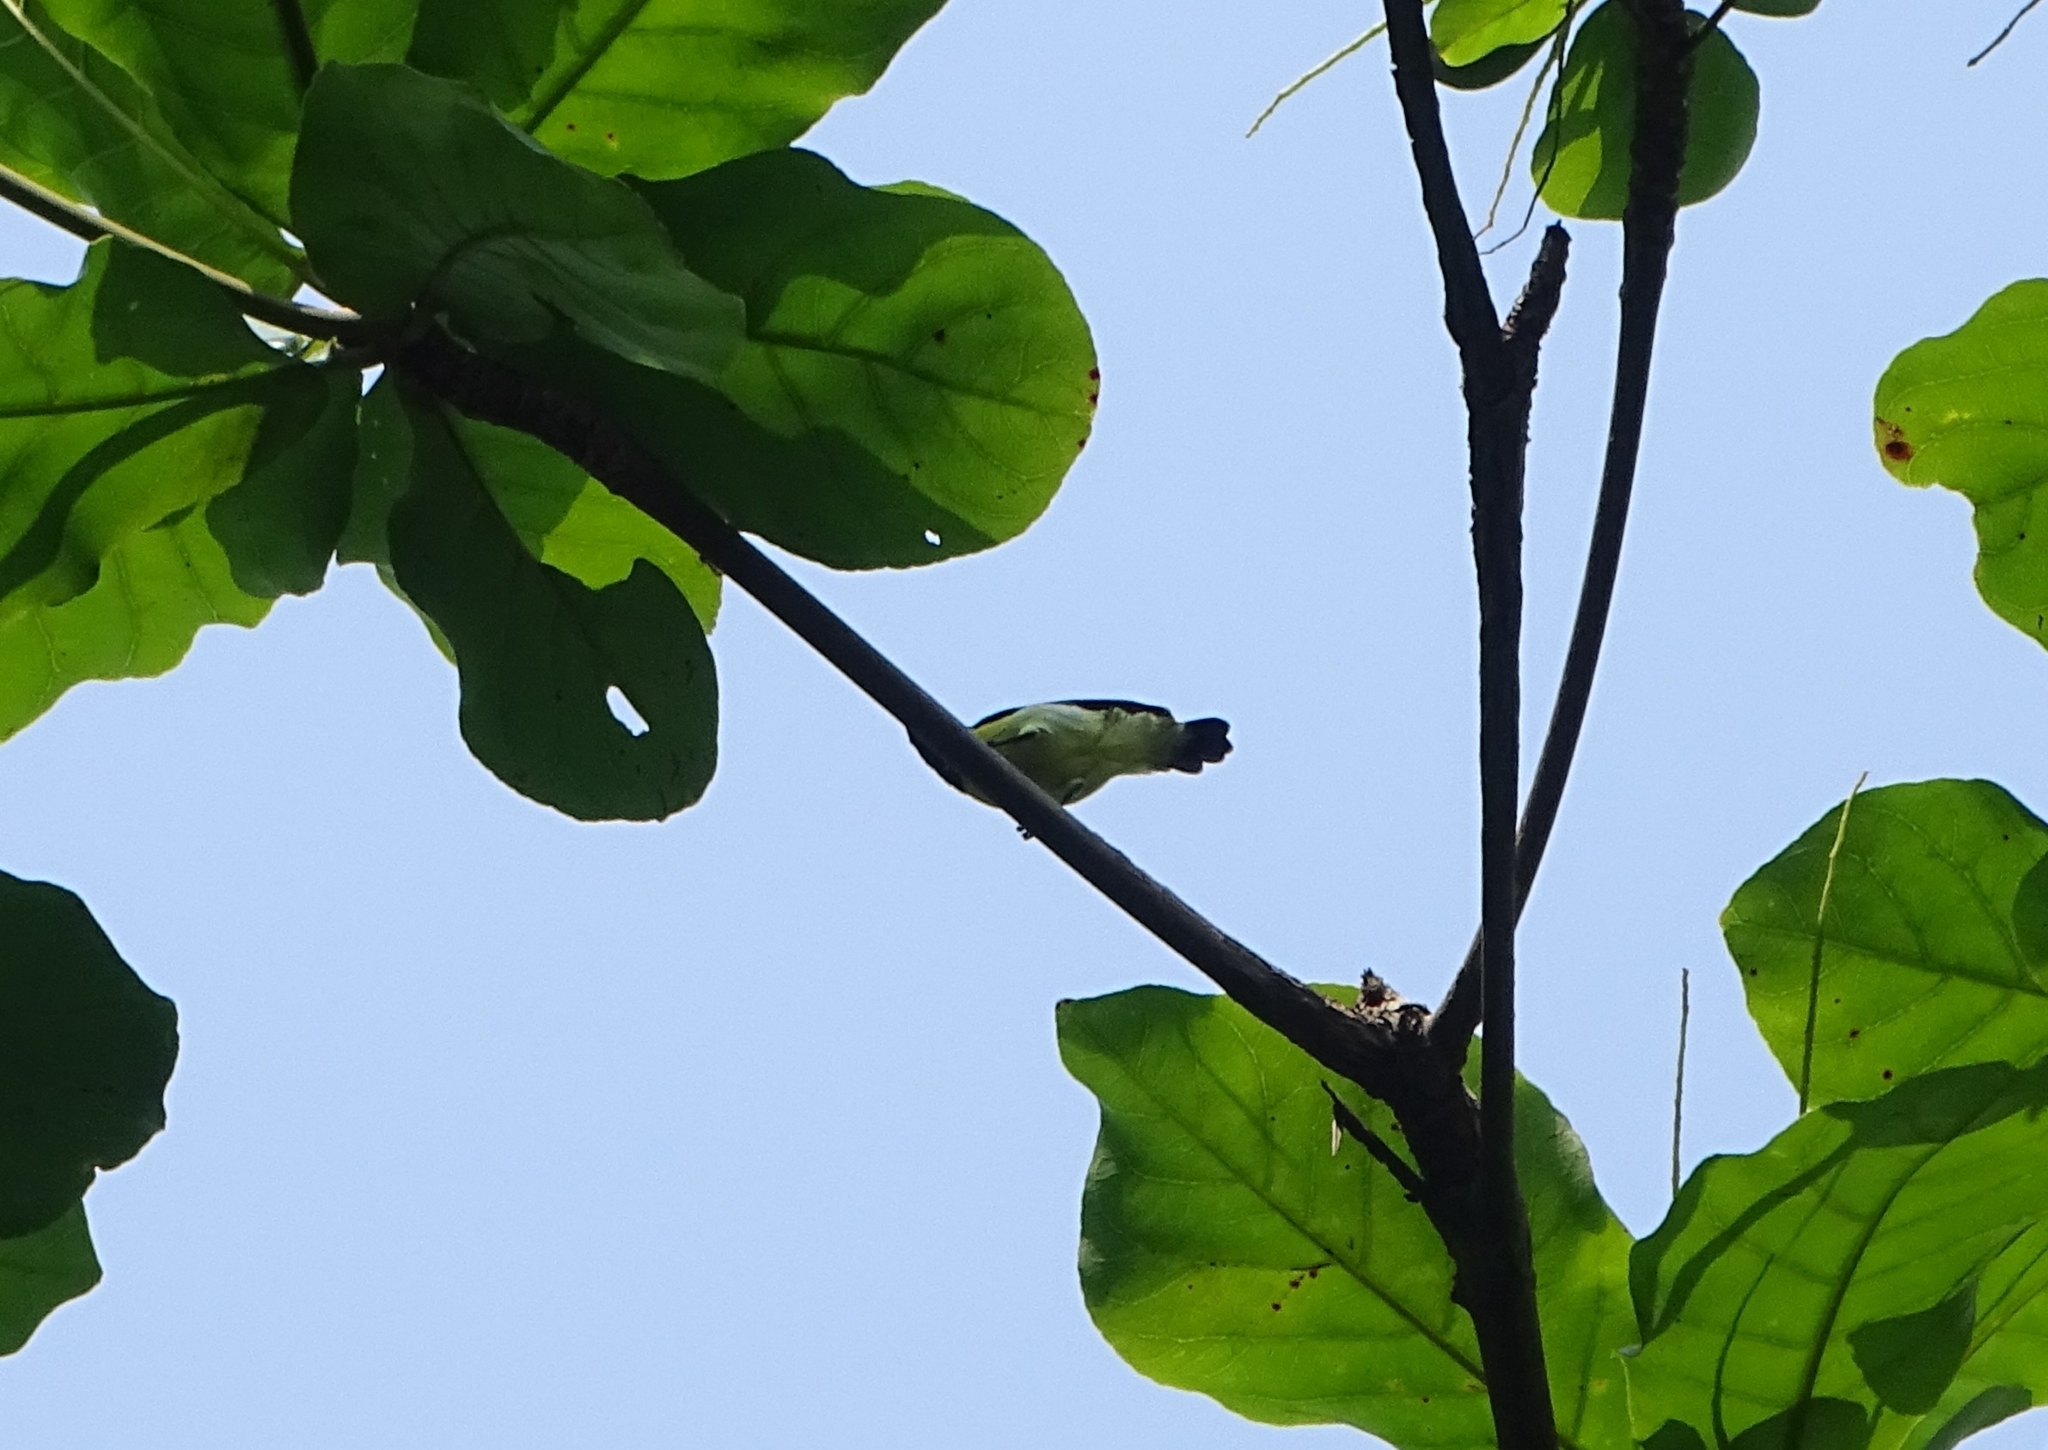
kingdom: Animalia
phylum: Chordata
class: Aves
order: Passeriformes
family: Nectariniidae
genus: Leptocoma
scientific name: Leptocoma zeylonica
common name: Purple-rumped sunbird
